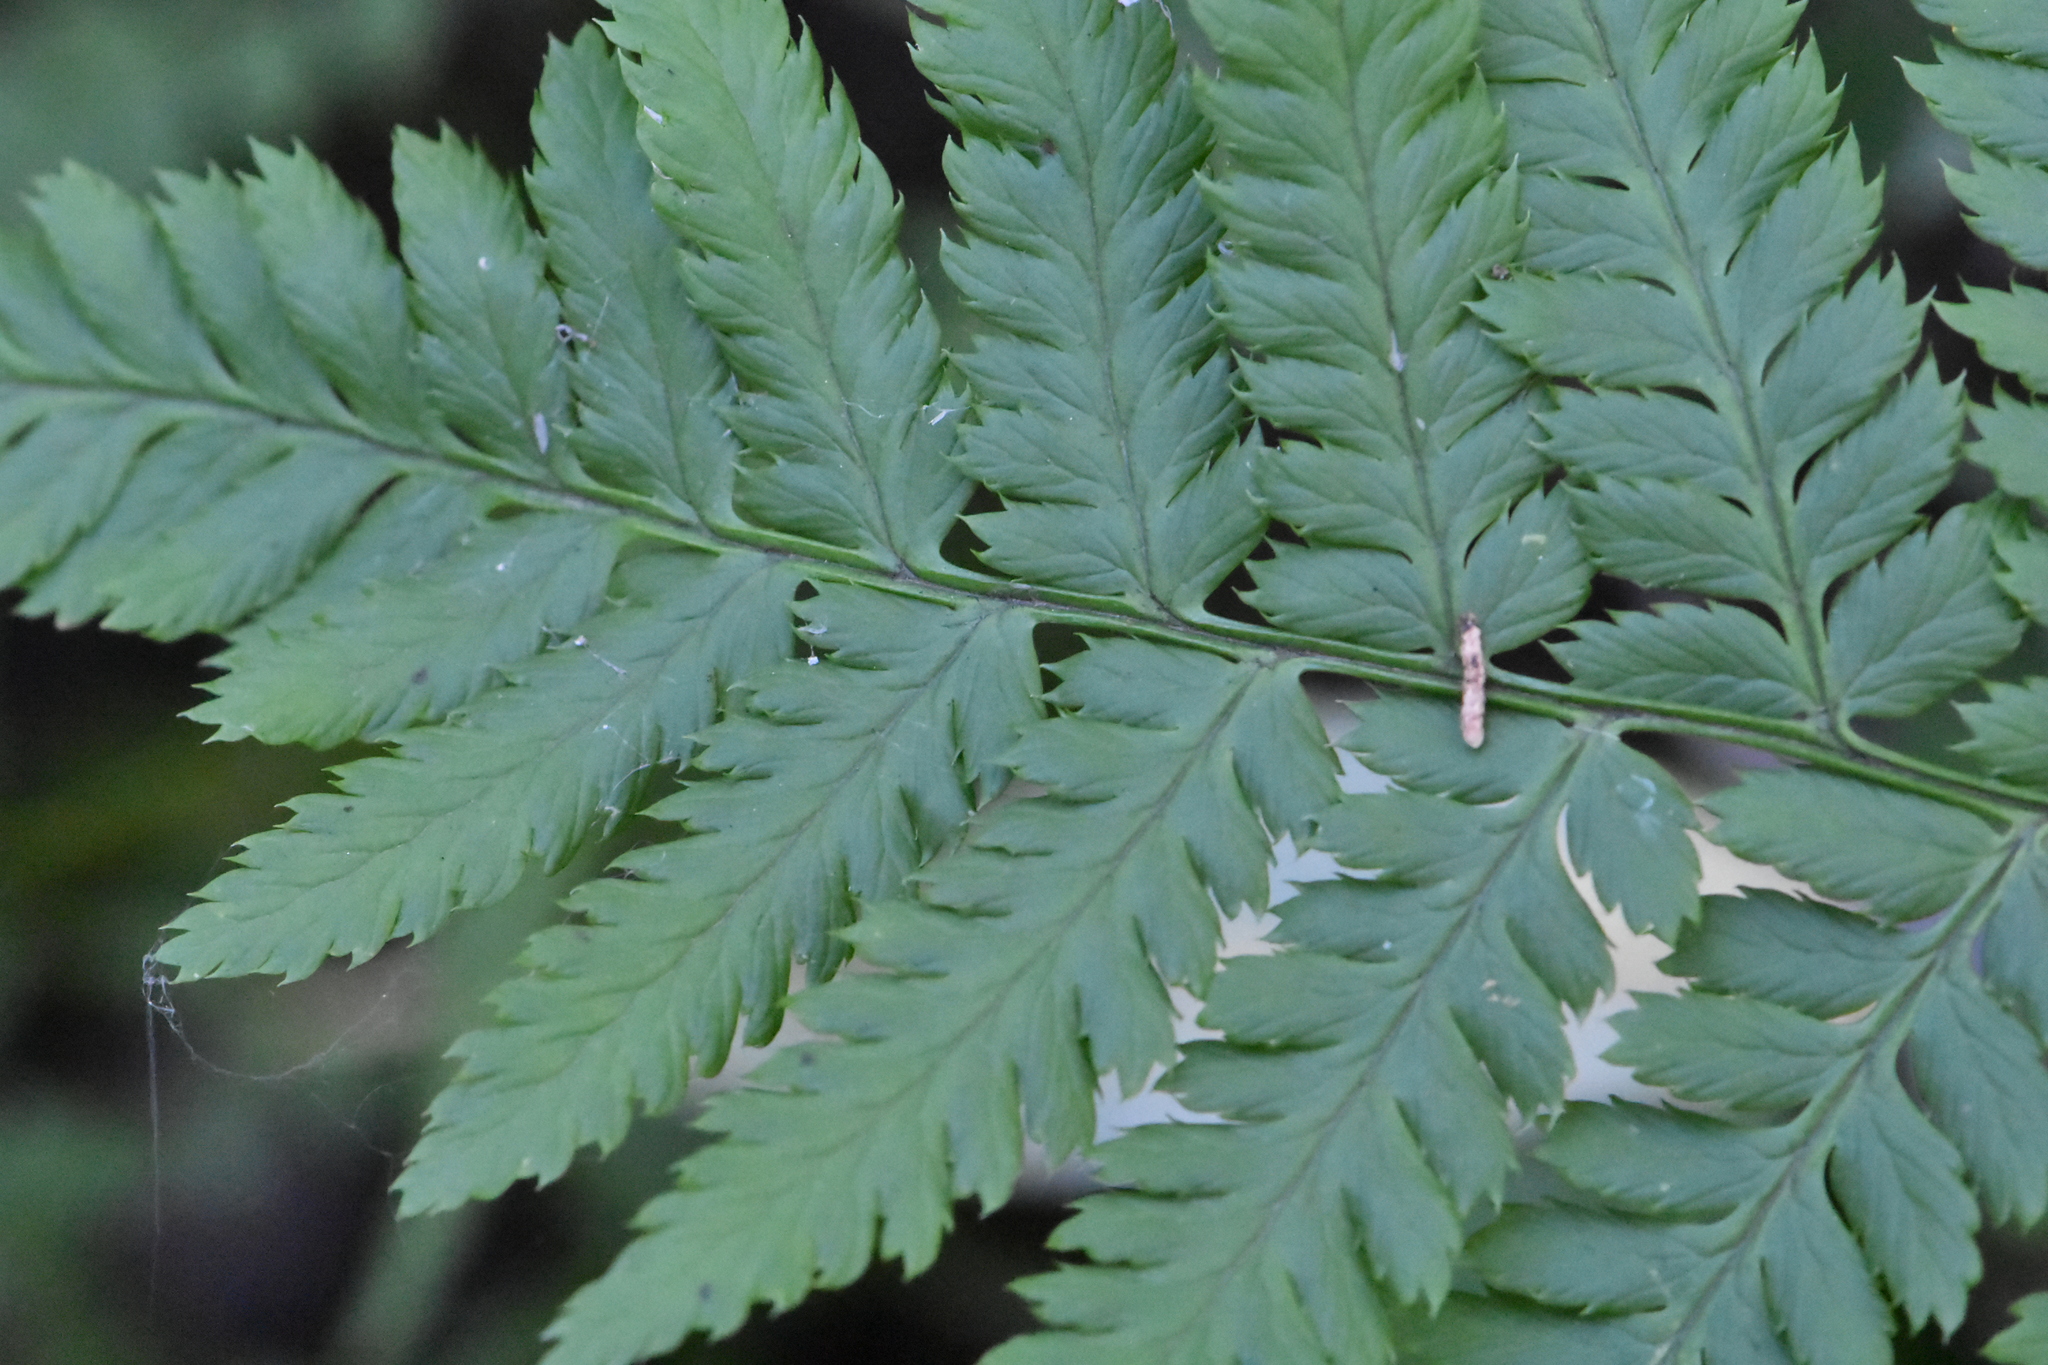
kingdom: Plantae
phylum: Tracheophyta
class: Polypodiopsida
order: Polypodiales
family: Dryopteridaceae
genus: Dryopteris
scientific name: Dryopteris carthusiana
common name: Narrow buckler-fern
